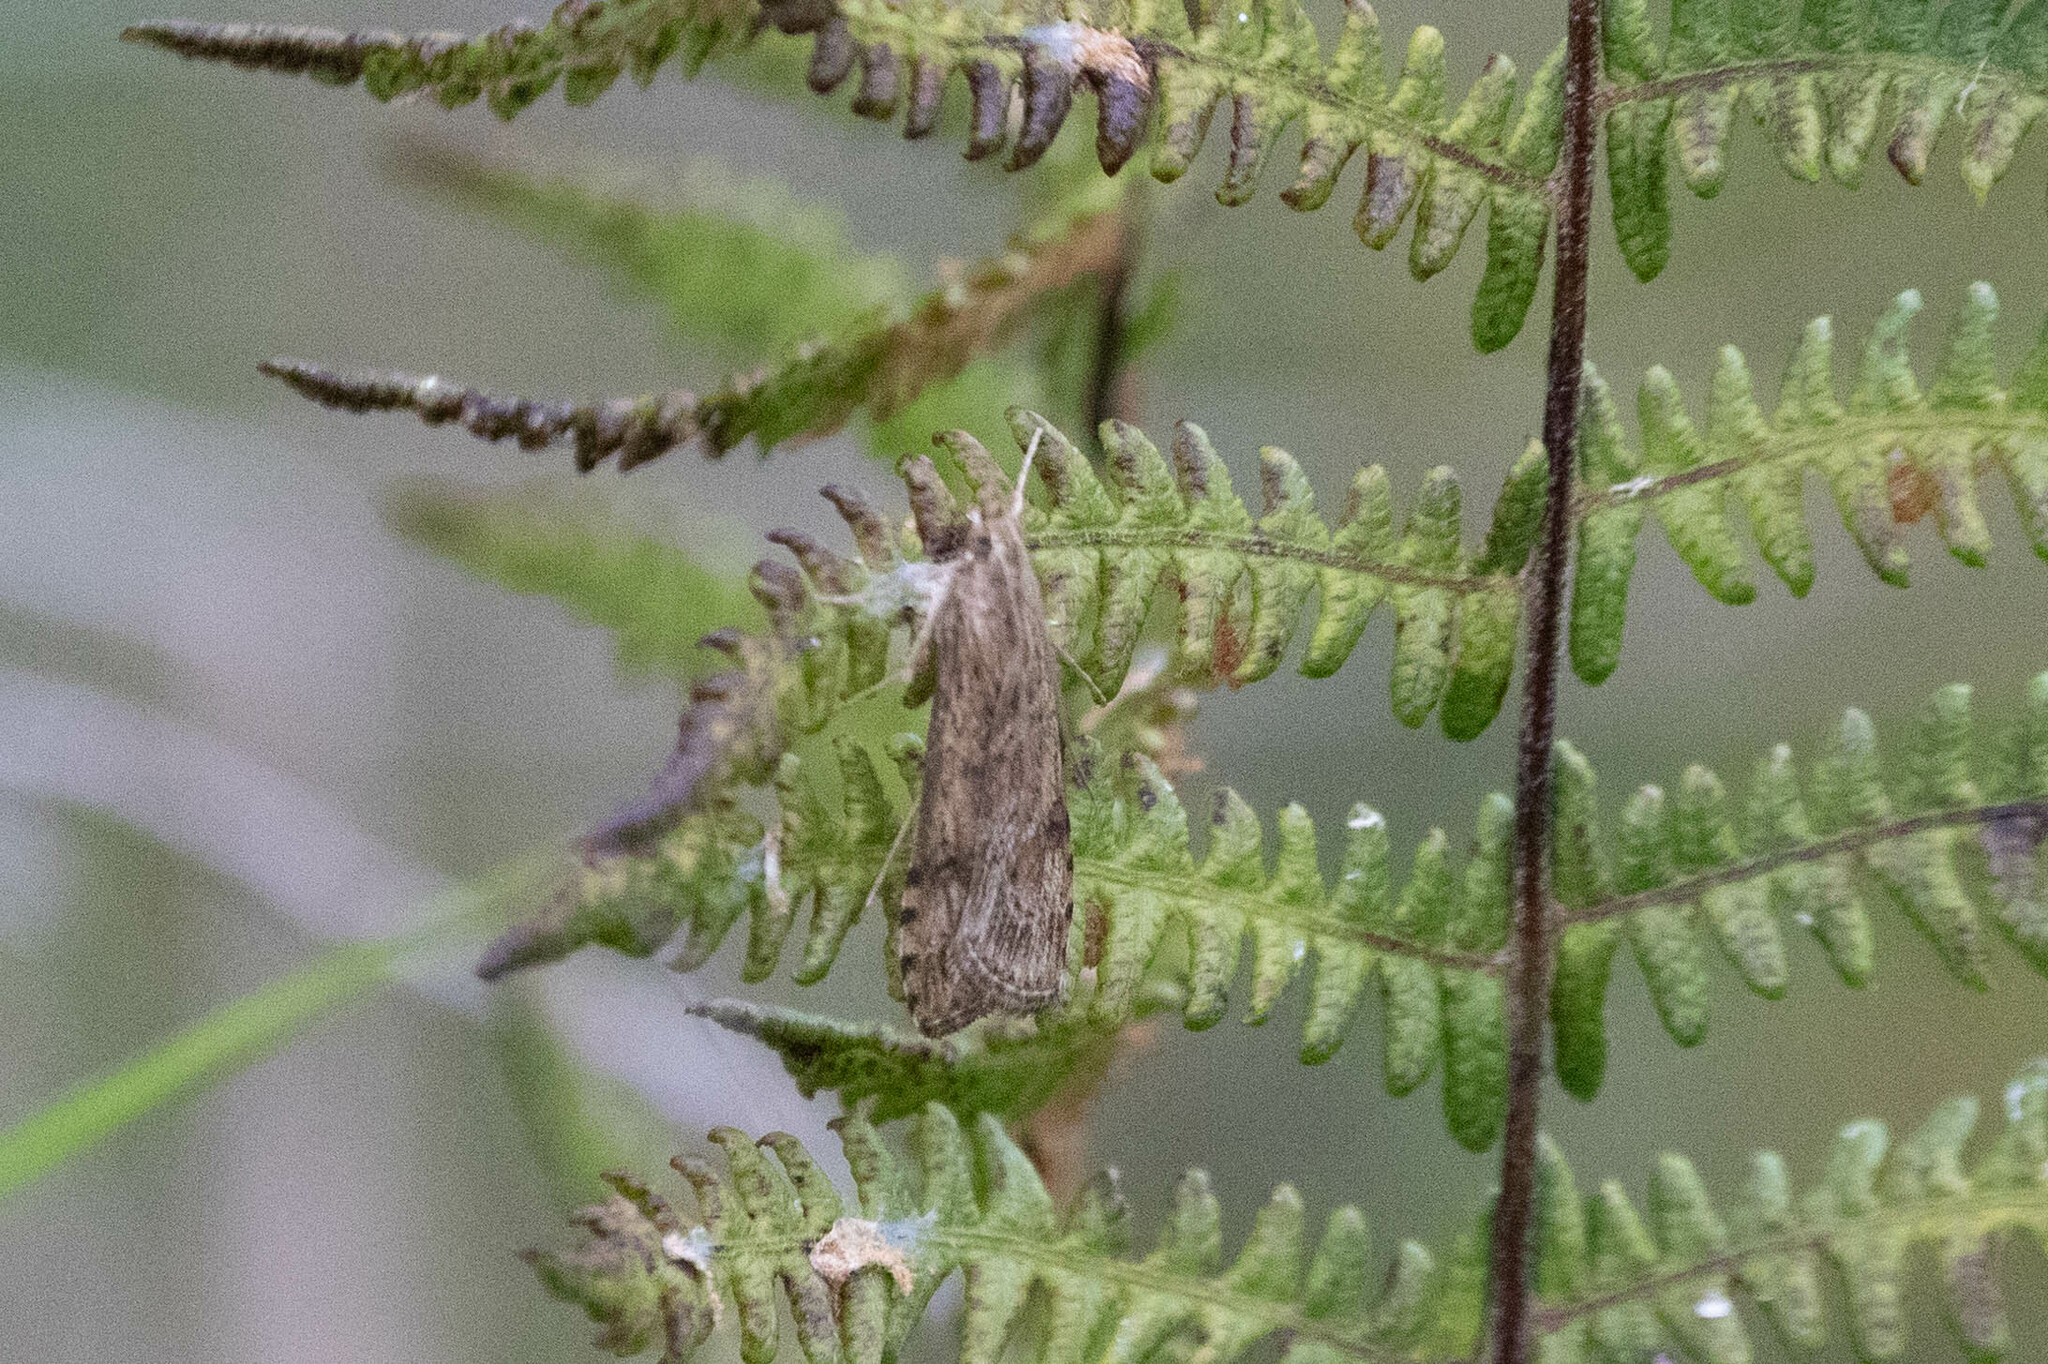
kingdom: Animalia
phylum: Arthropoda
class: Insecta
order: Lepidoptera
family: Crambidae
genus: Nomophila
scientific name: Nomophila nearctica
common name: American rush veneer
